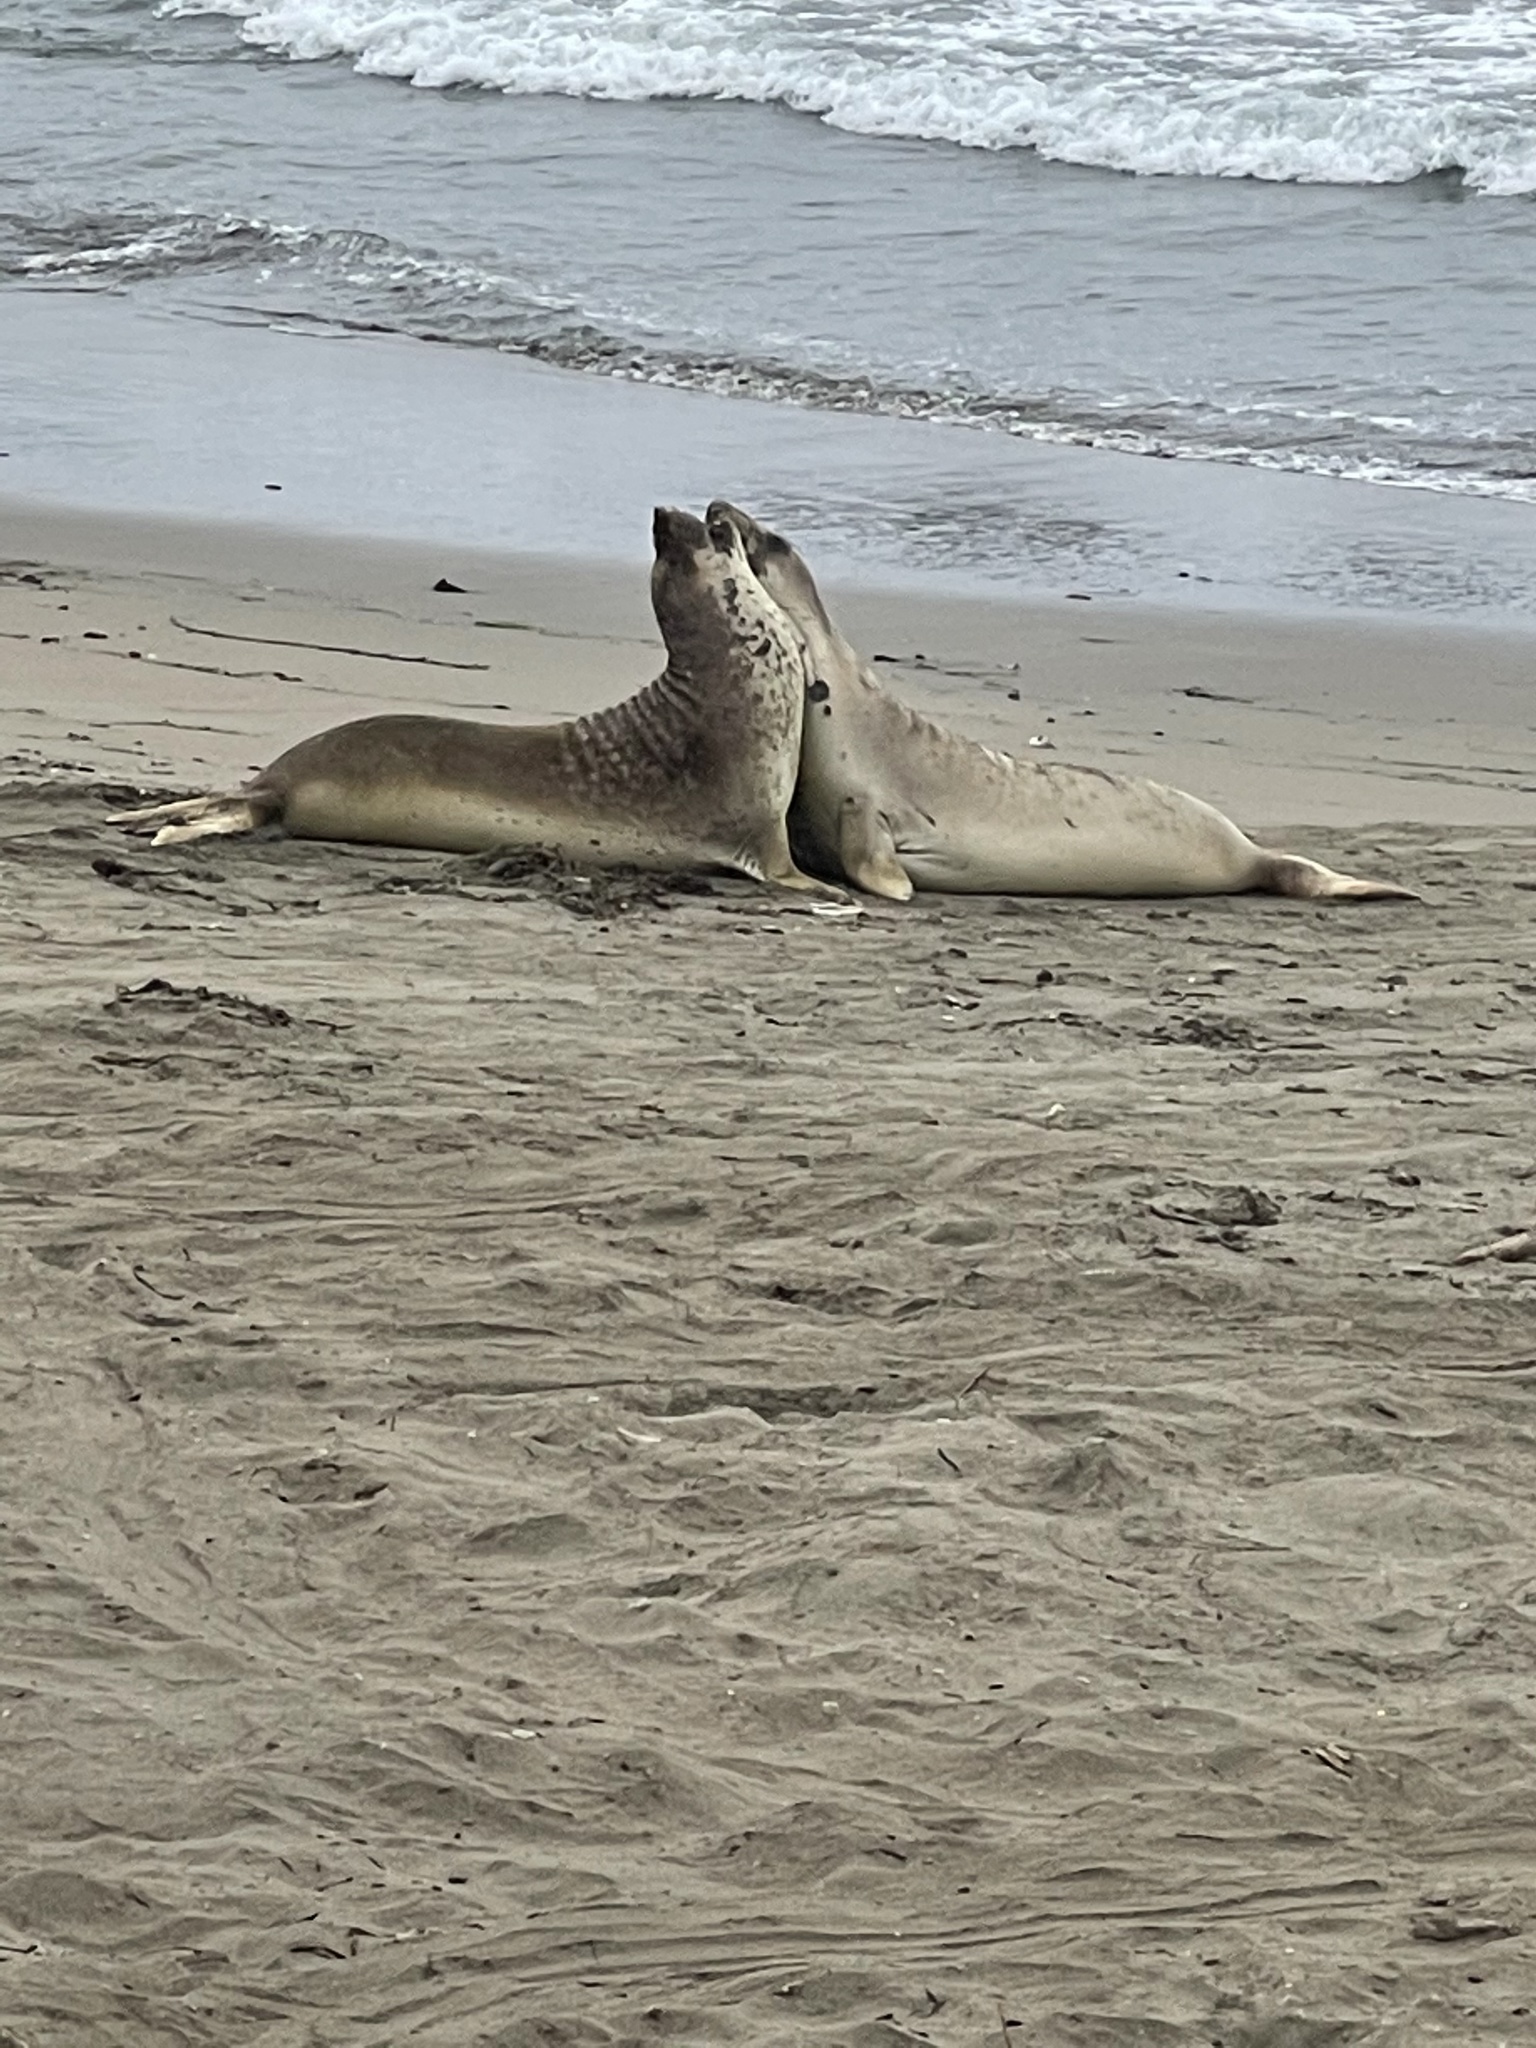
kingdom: Animalia
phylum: Chordata
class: Mammalia
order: Carnivora
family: Phocidae
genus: Mirounga
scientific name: Mirounga angustirostris
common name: Northern elephant seal
